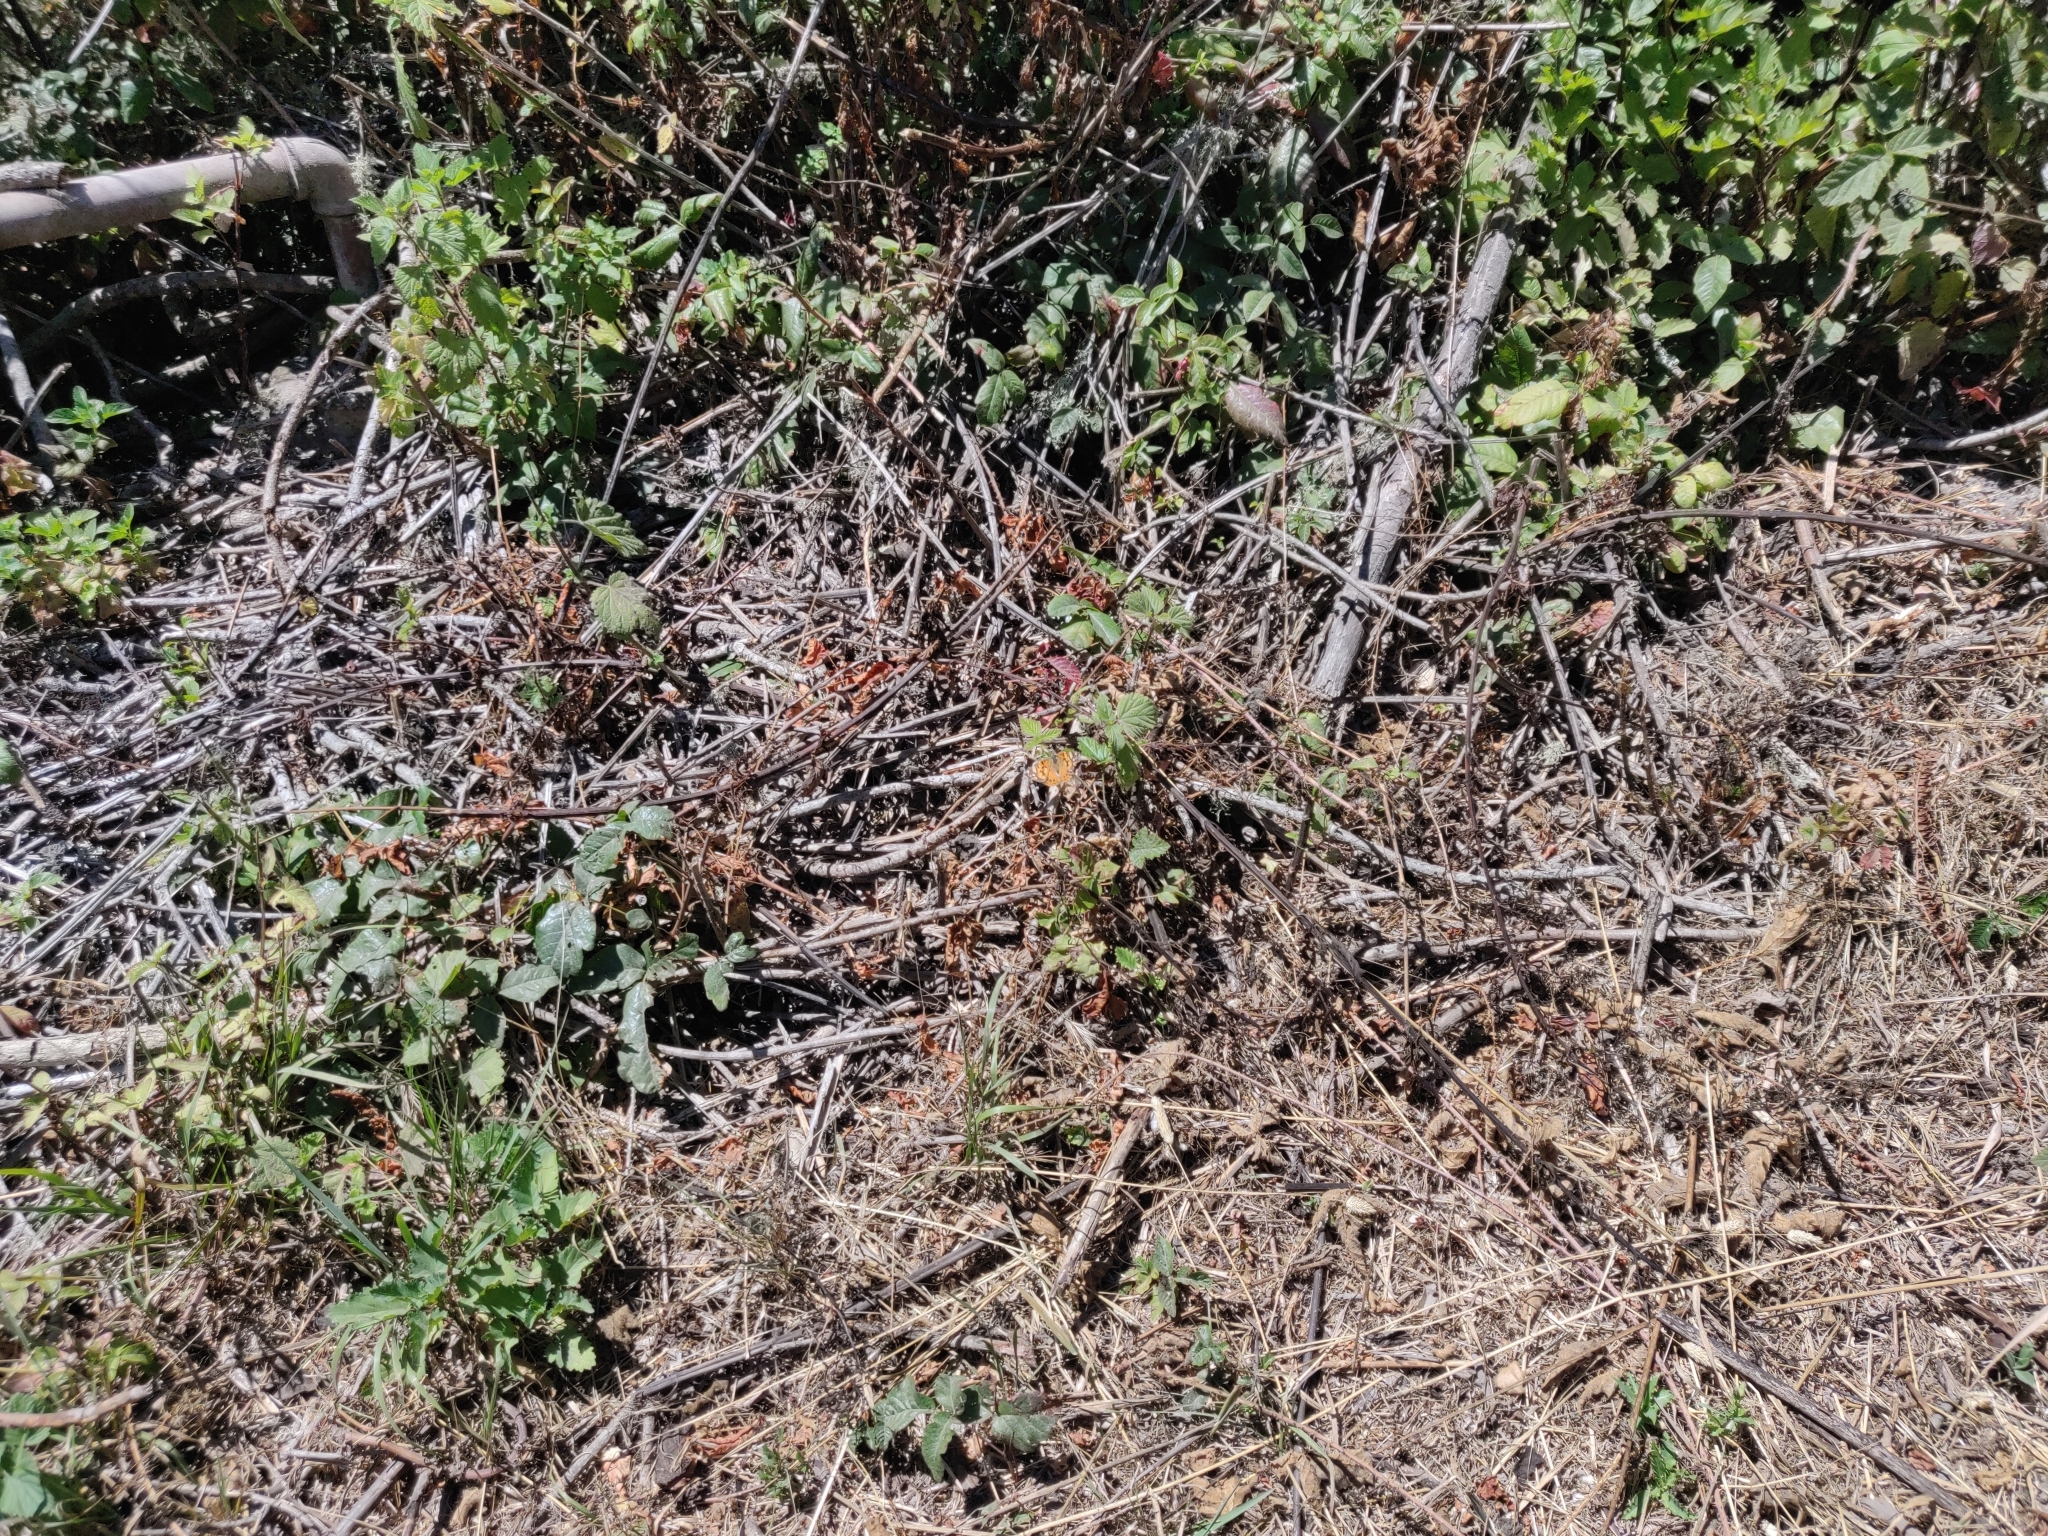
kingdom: Animalia
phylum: Arthropoda
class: Insecta
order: Lepidoptera
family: Nymphalidae
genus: Vanessa
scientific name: Vanessa annabella
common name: West coast lady
